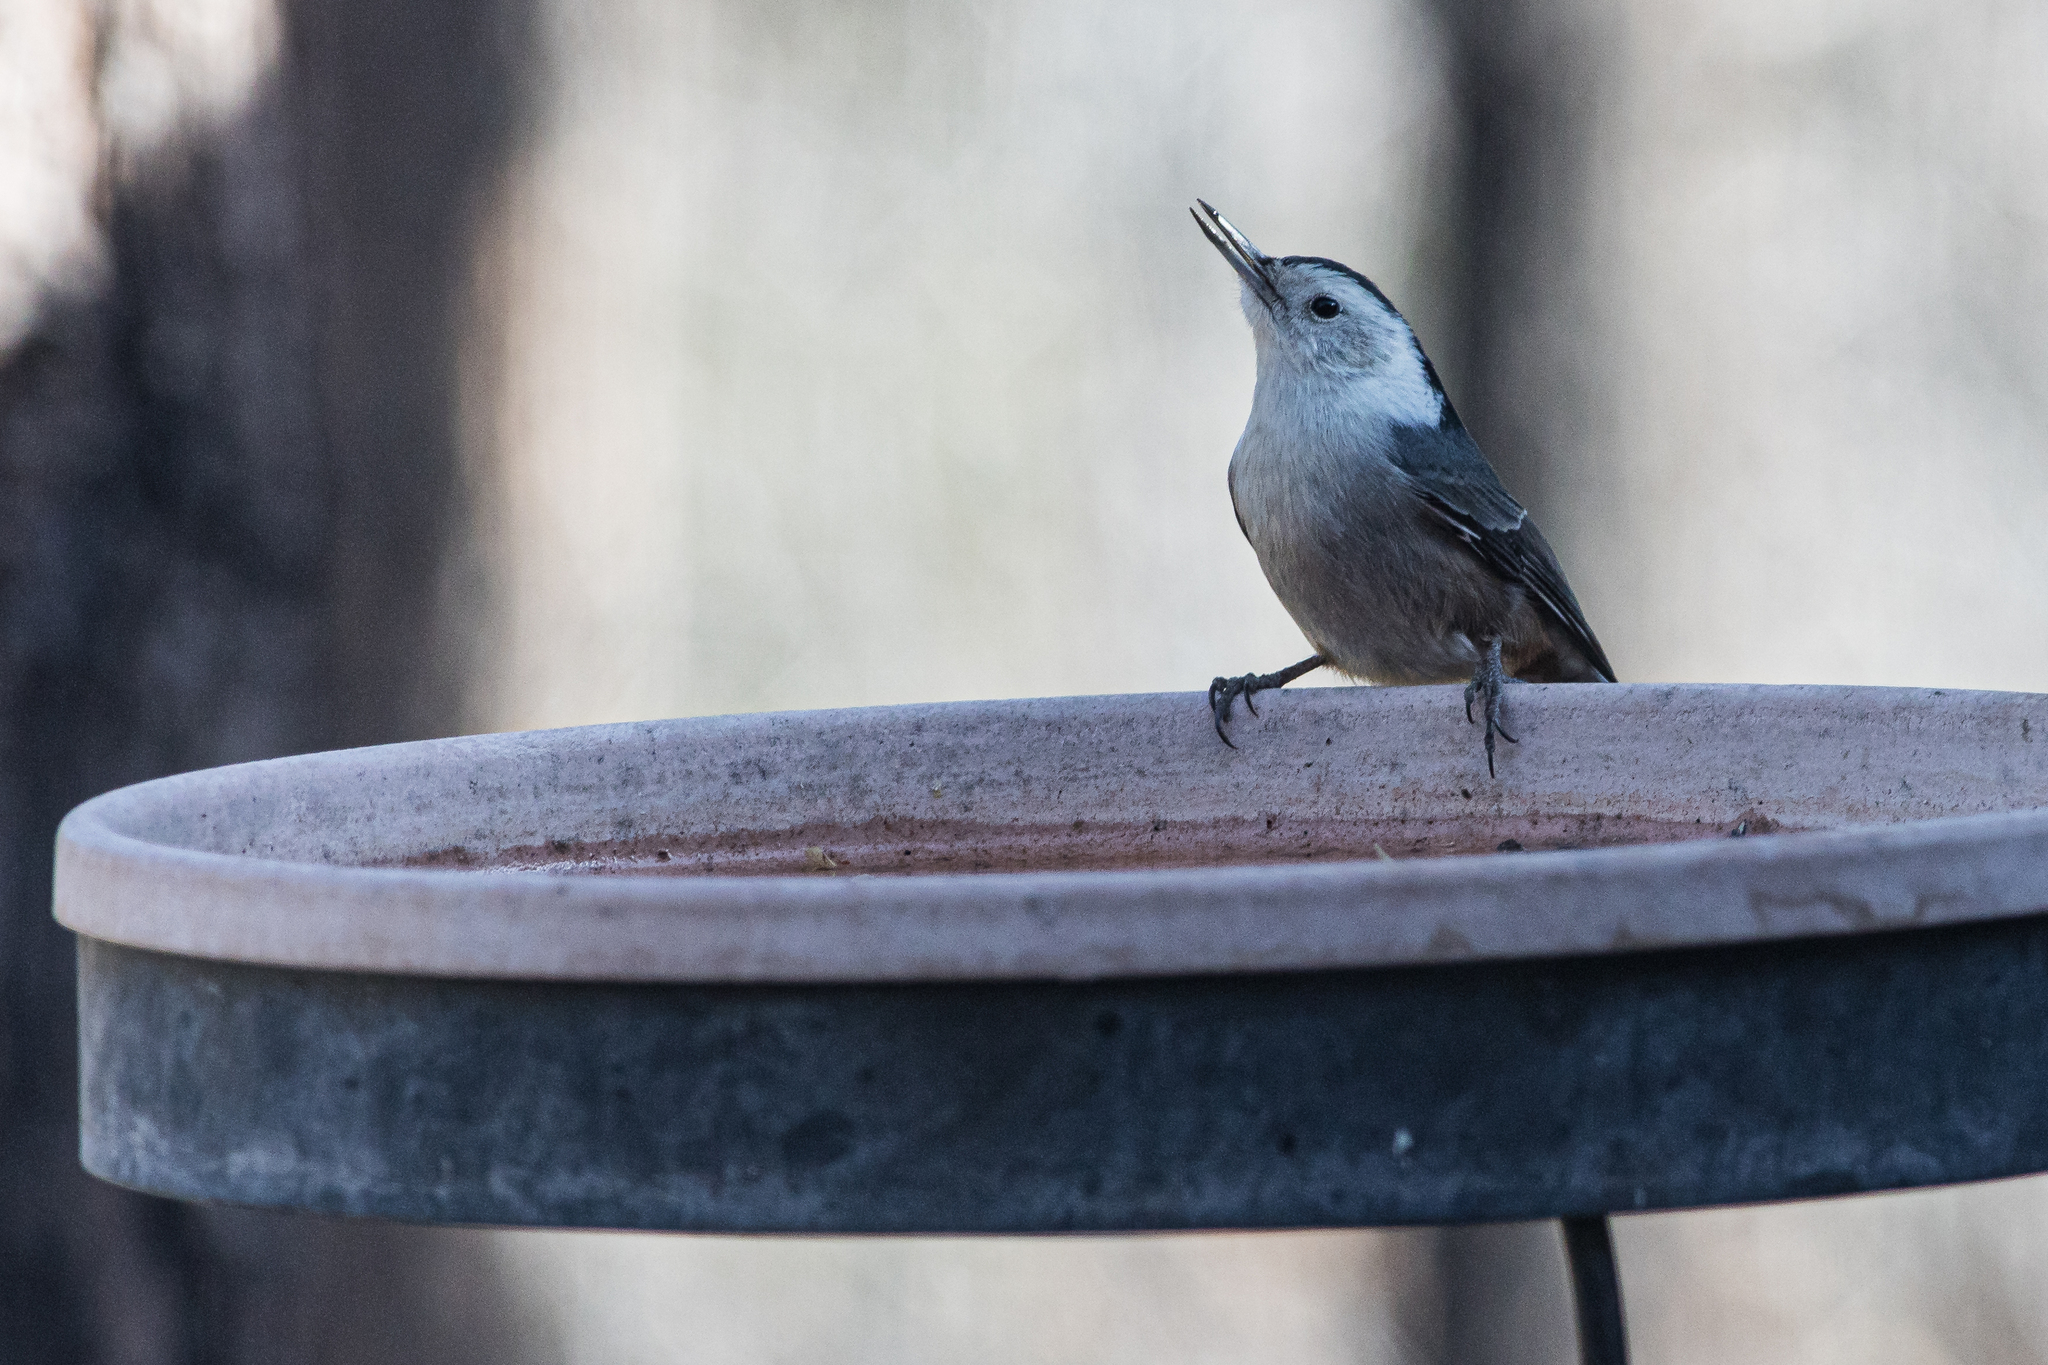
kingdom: Animalia
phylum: Chordata
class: Aves
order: Passeriformes
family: Sittidae
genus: Sitta
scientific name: Sitta carolinensis
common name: White-breasted nuthatch
